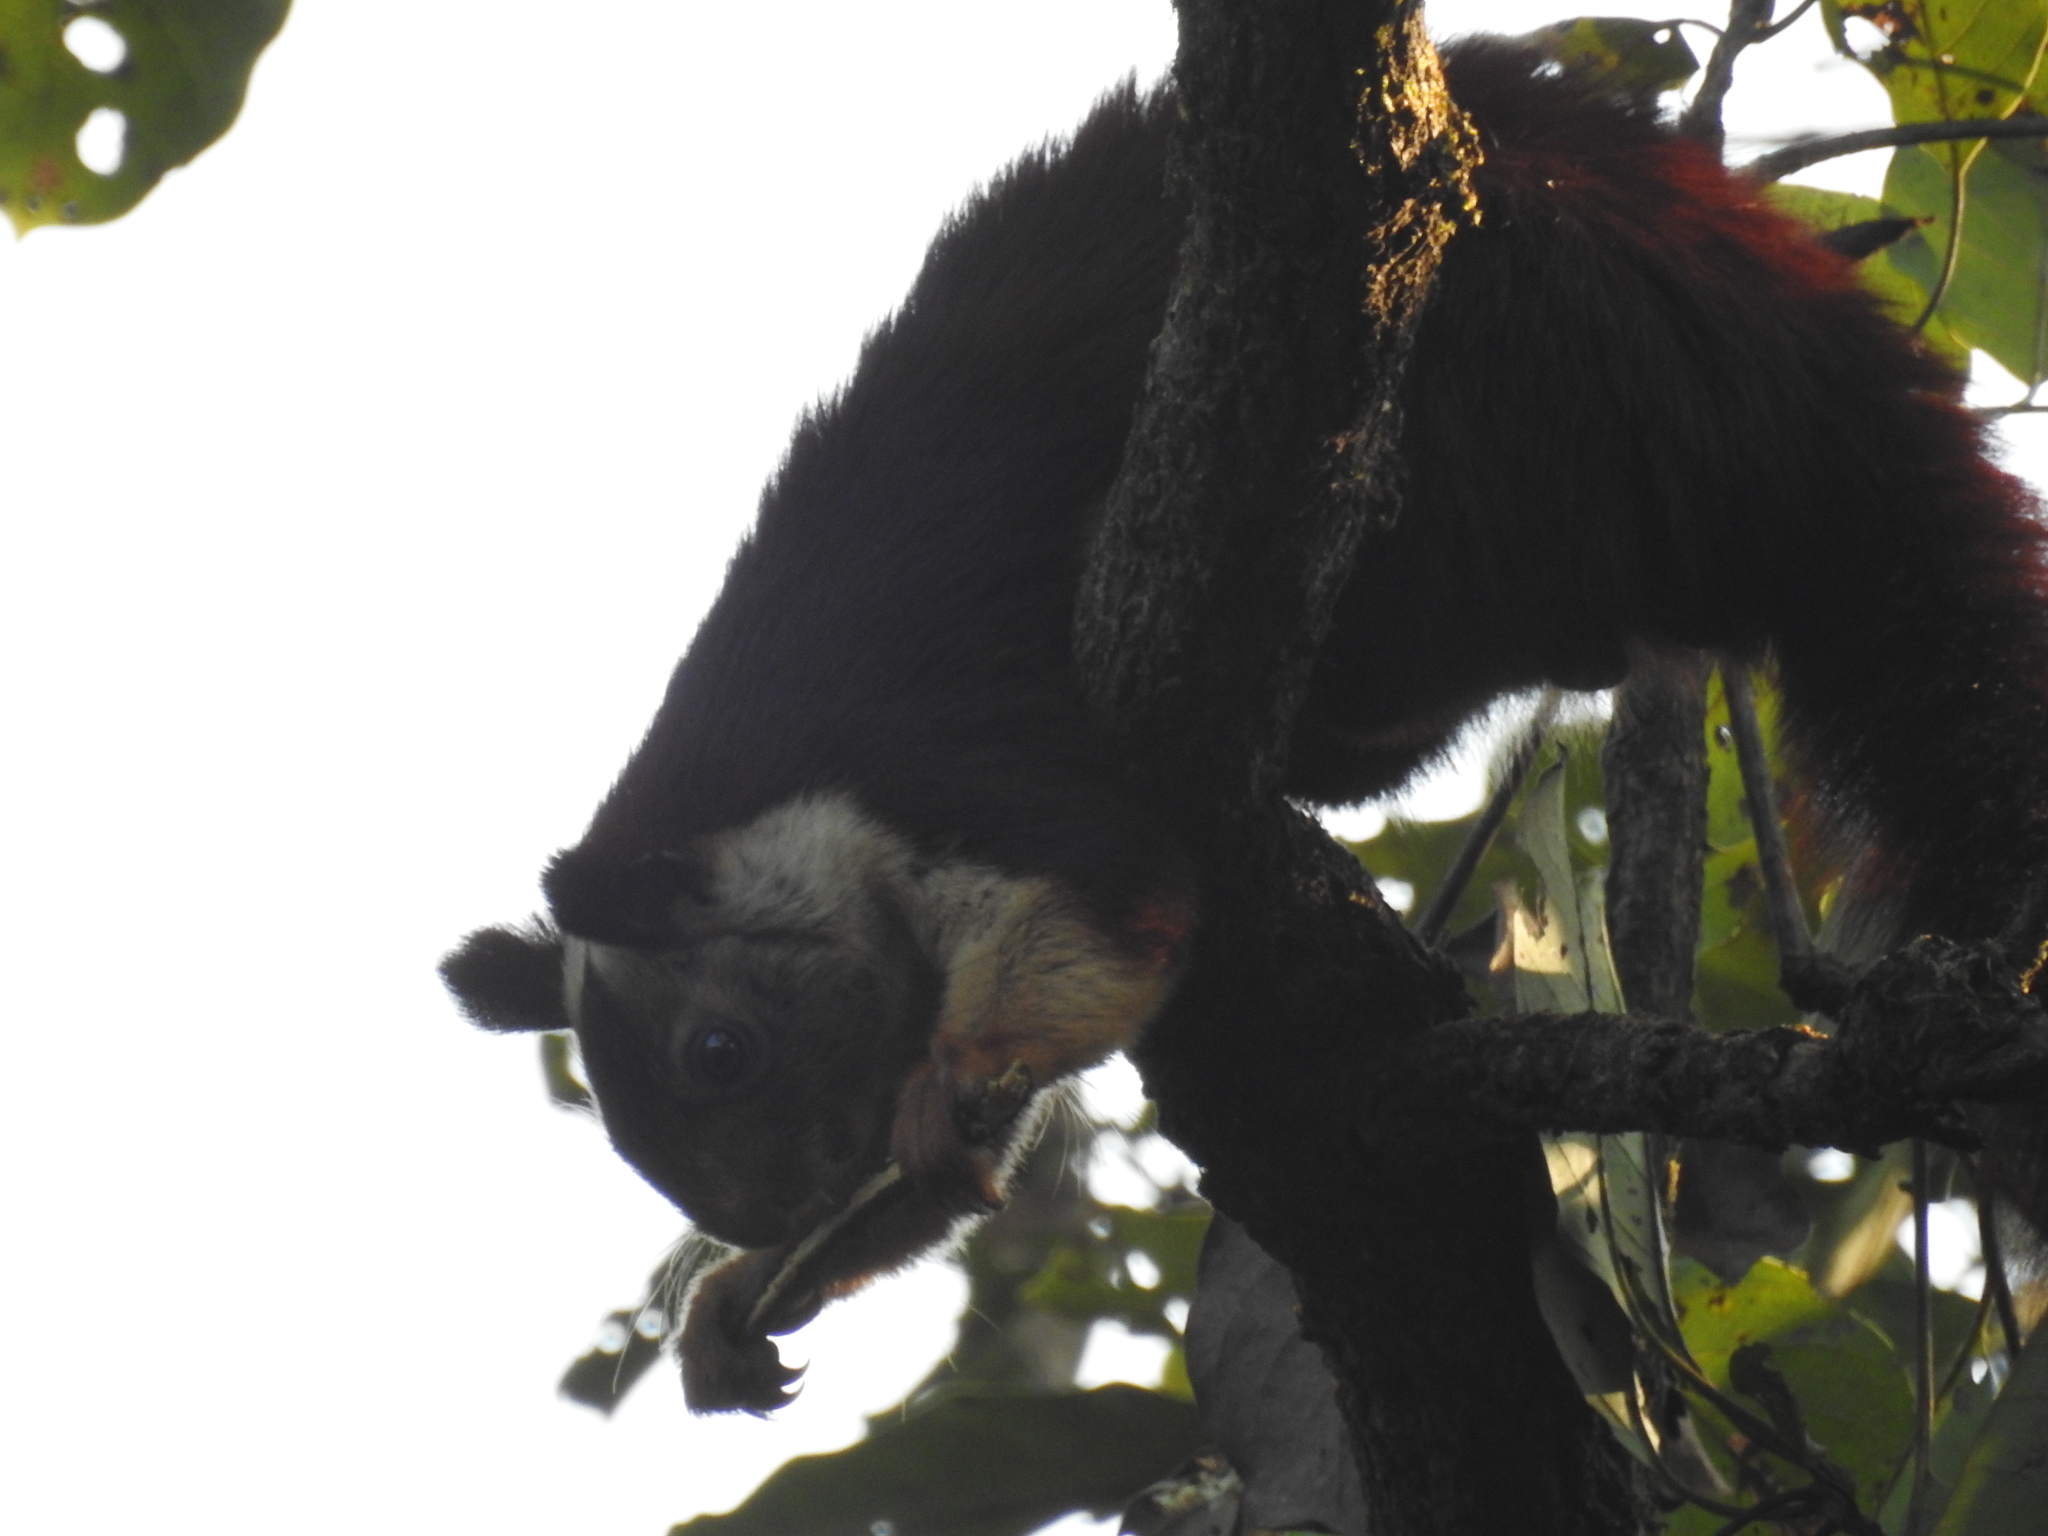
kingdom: Animalia
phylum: Chordata
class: Mammalia
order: Rodentia
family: Sciuridae
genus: Ratufa
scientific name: Ratufa indica
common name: Indian giant squirrel
